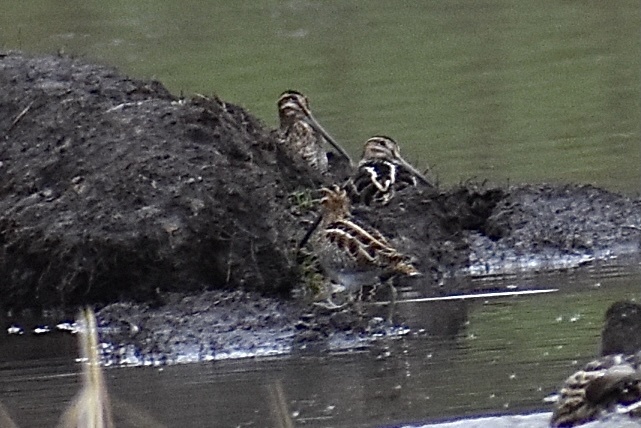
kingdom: Animalia
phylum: Chordata
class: Aves
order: Charadriiformes
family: Scolopacidae
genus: Gallinago
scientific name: Gallinago delicata
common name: Wilson's snipe
